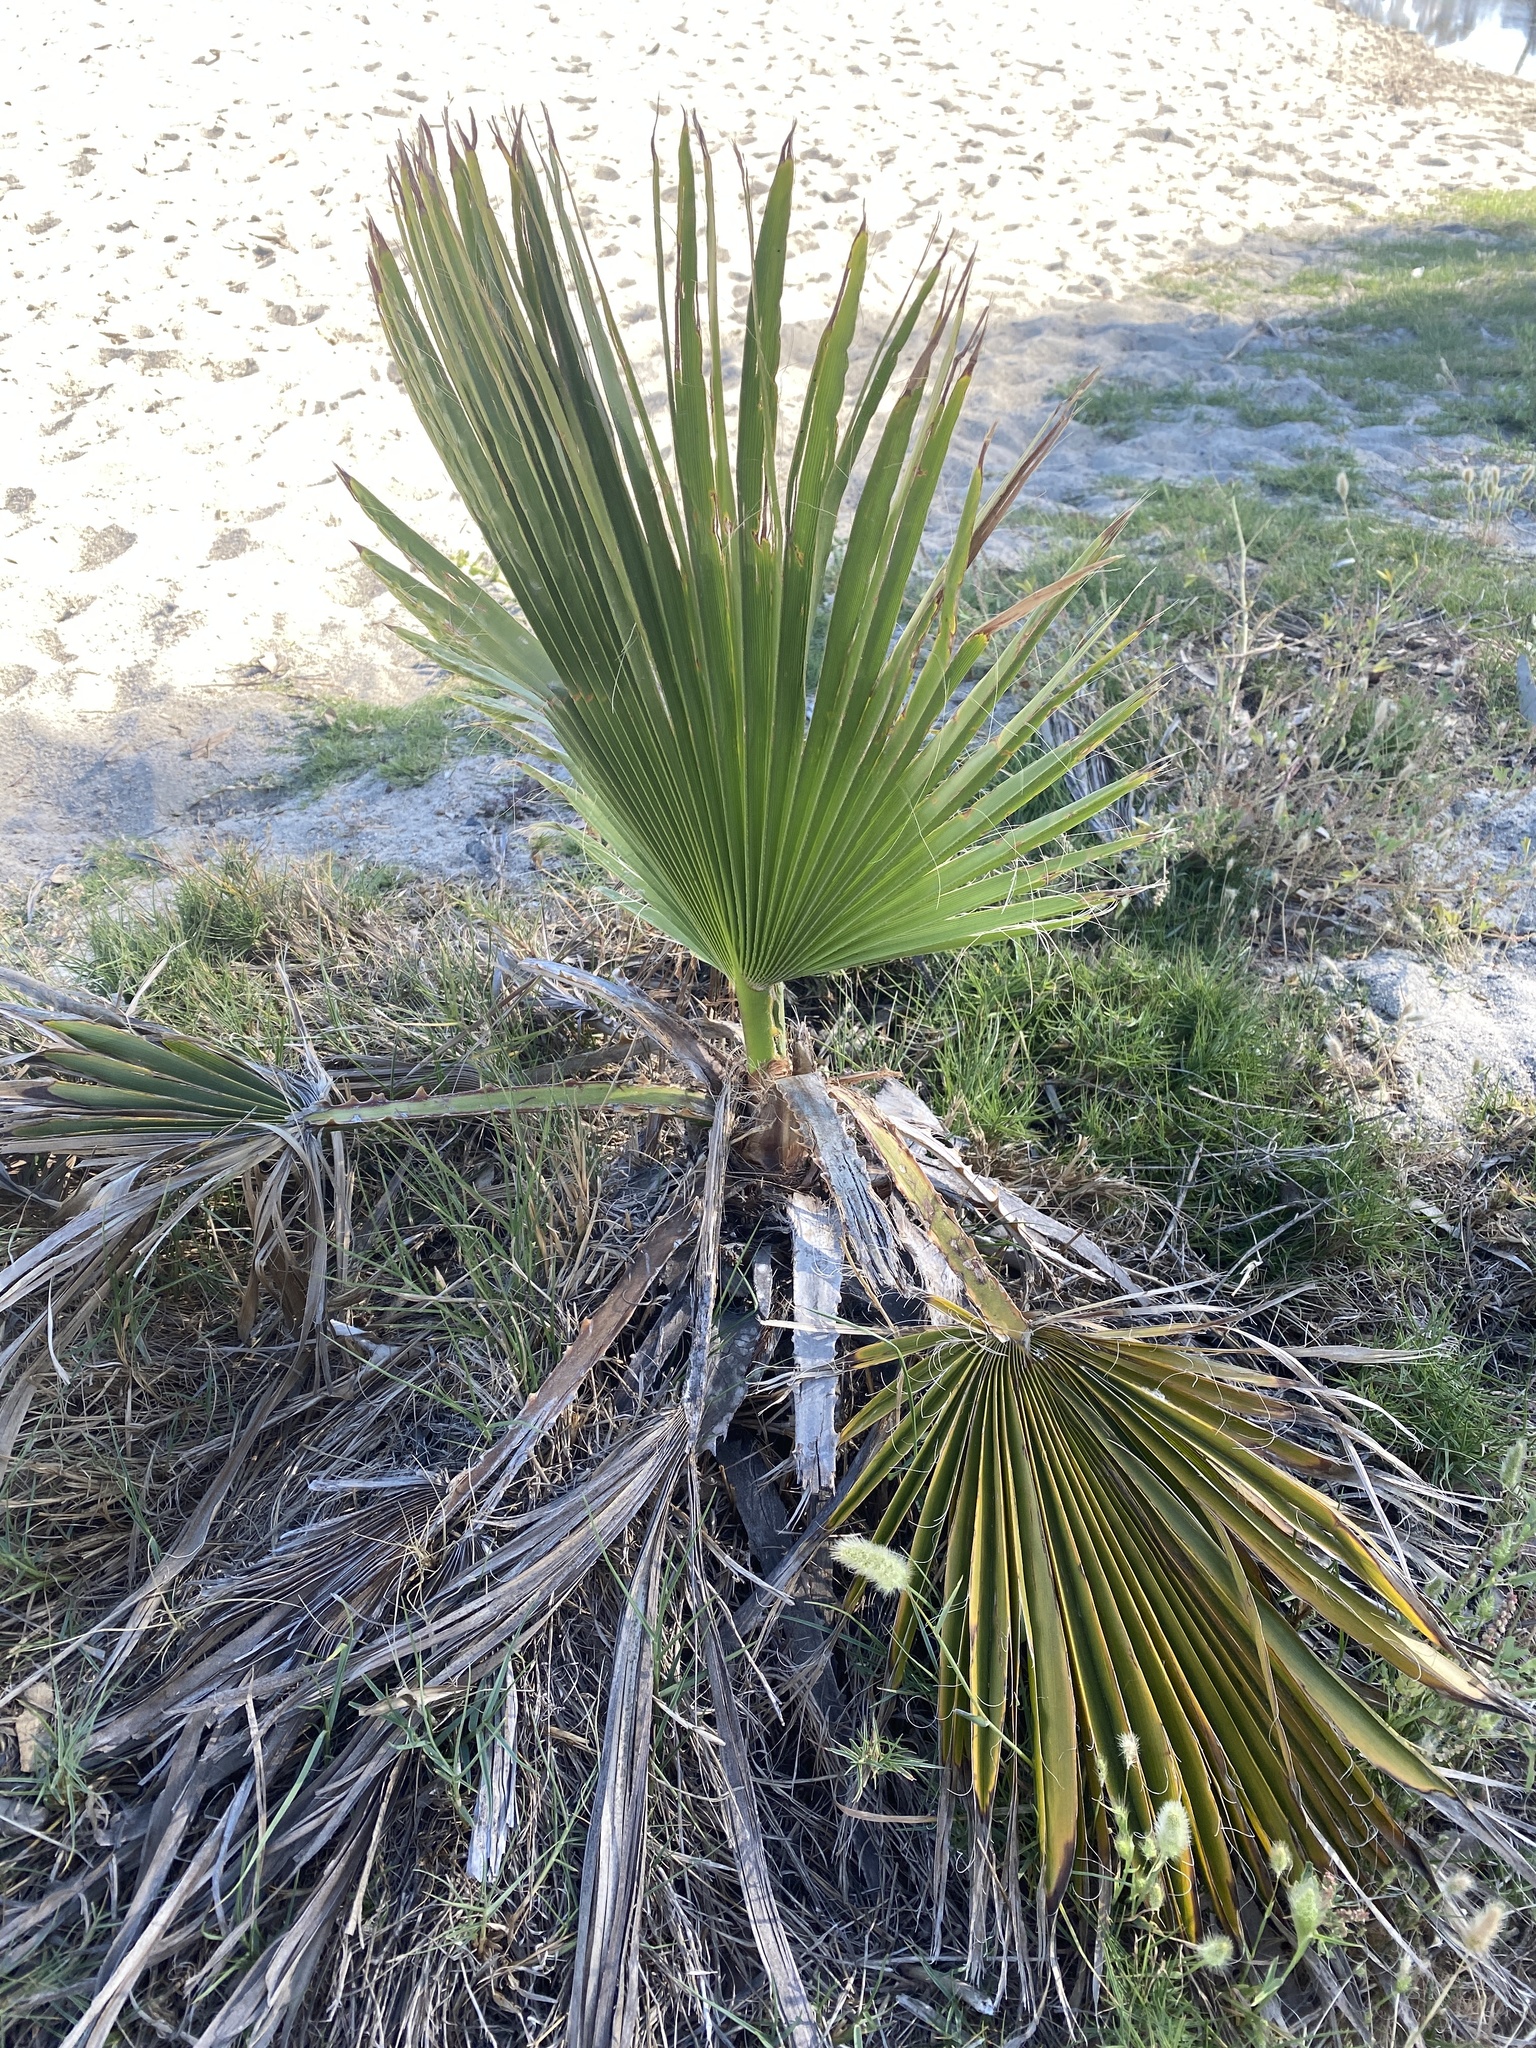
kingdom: Plantae
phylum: Tracheophyta
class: Liliopsida
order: Arecales
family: Arecaceae
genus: Washingtonia
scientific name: Washingtonia robusta
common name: Mexican fan palm
